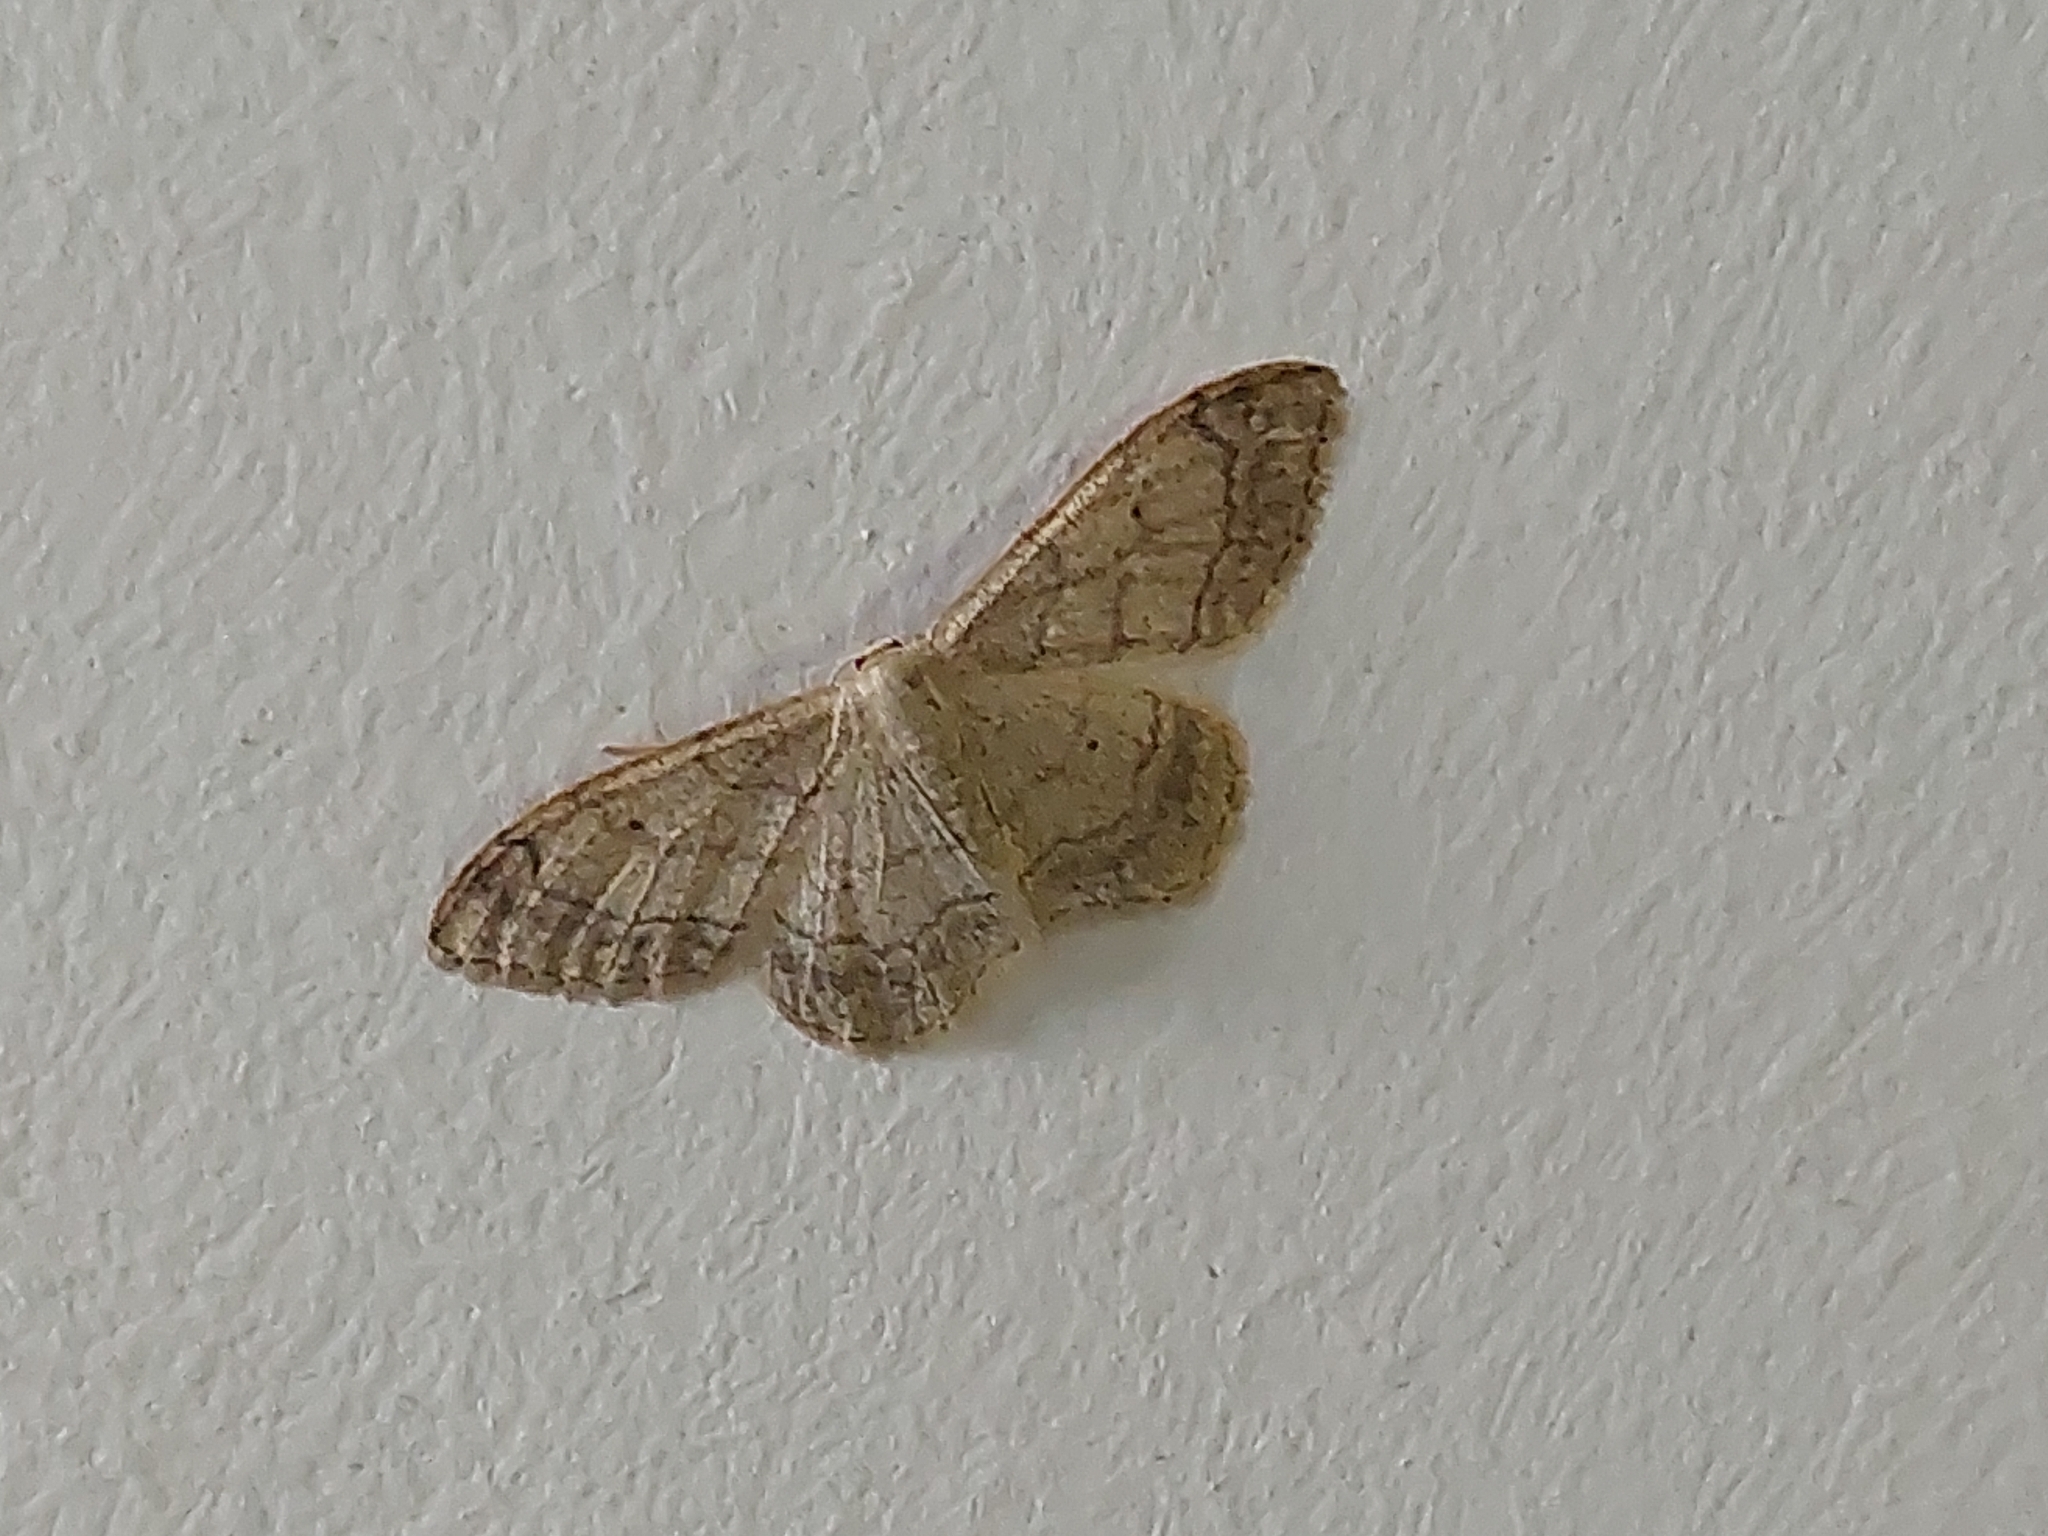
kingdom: Animalia
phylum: Arthropoda
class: Insecta
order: Lepidoptera
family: Geometridae
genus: Idaea
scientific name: Idaea aversata
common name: Riband wave
